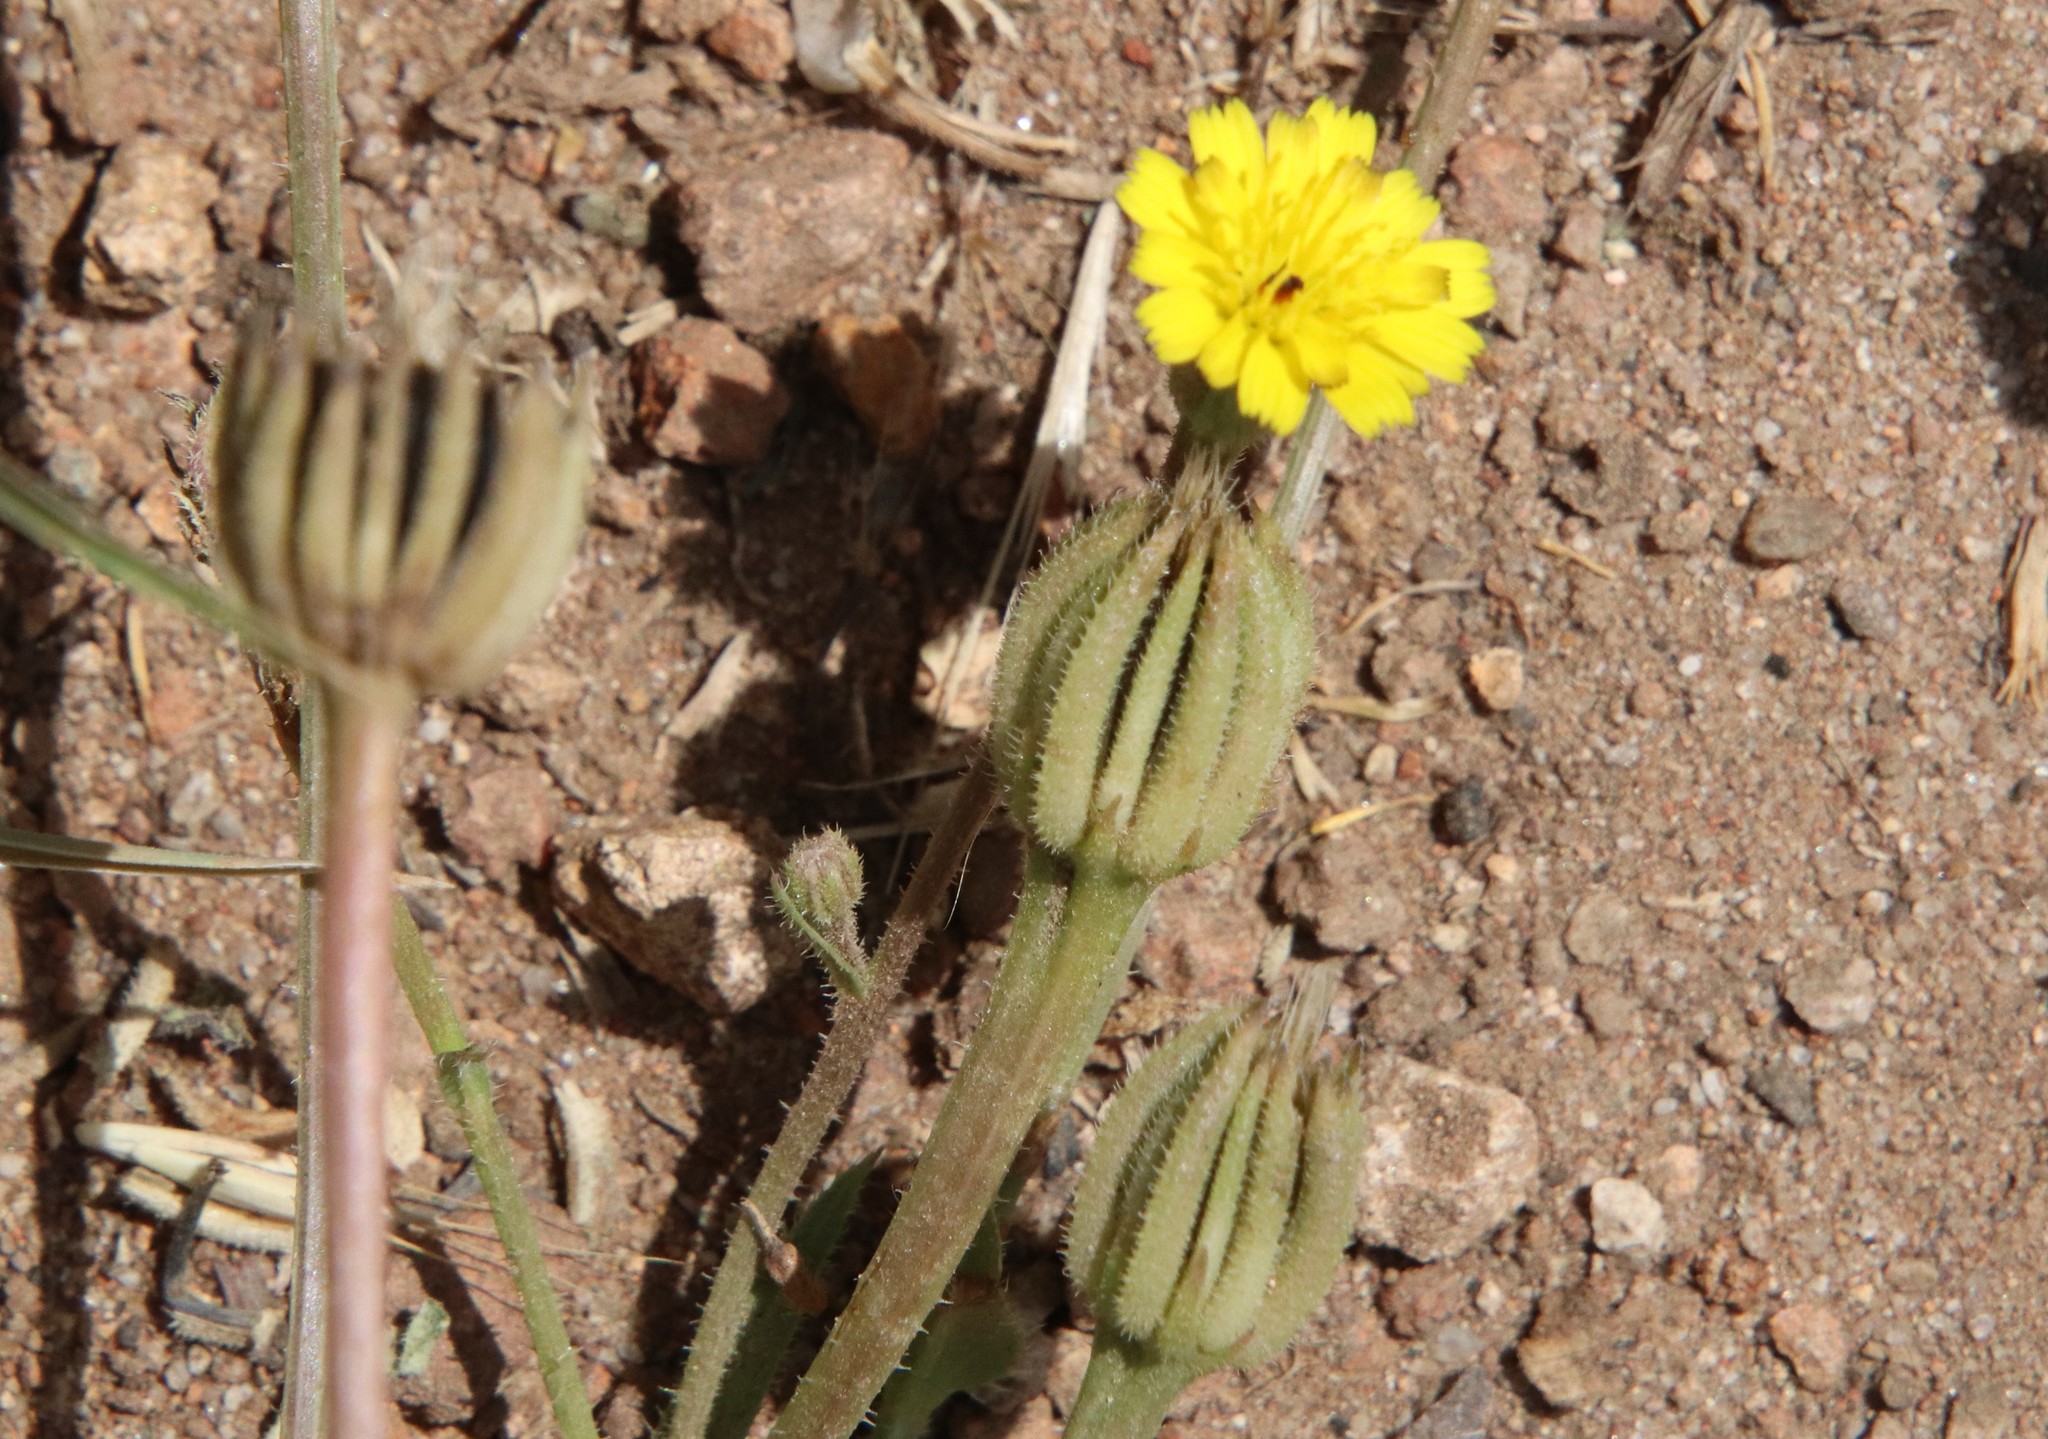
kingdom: Plantae
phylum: Tracheophyta
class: Magnoliopsida
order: Asterales
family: Asteraceae
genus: Hedypnois
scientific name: Hedypnois rhagadioloides
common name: Cretan weed
